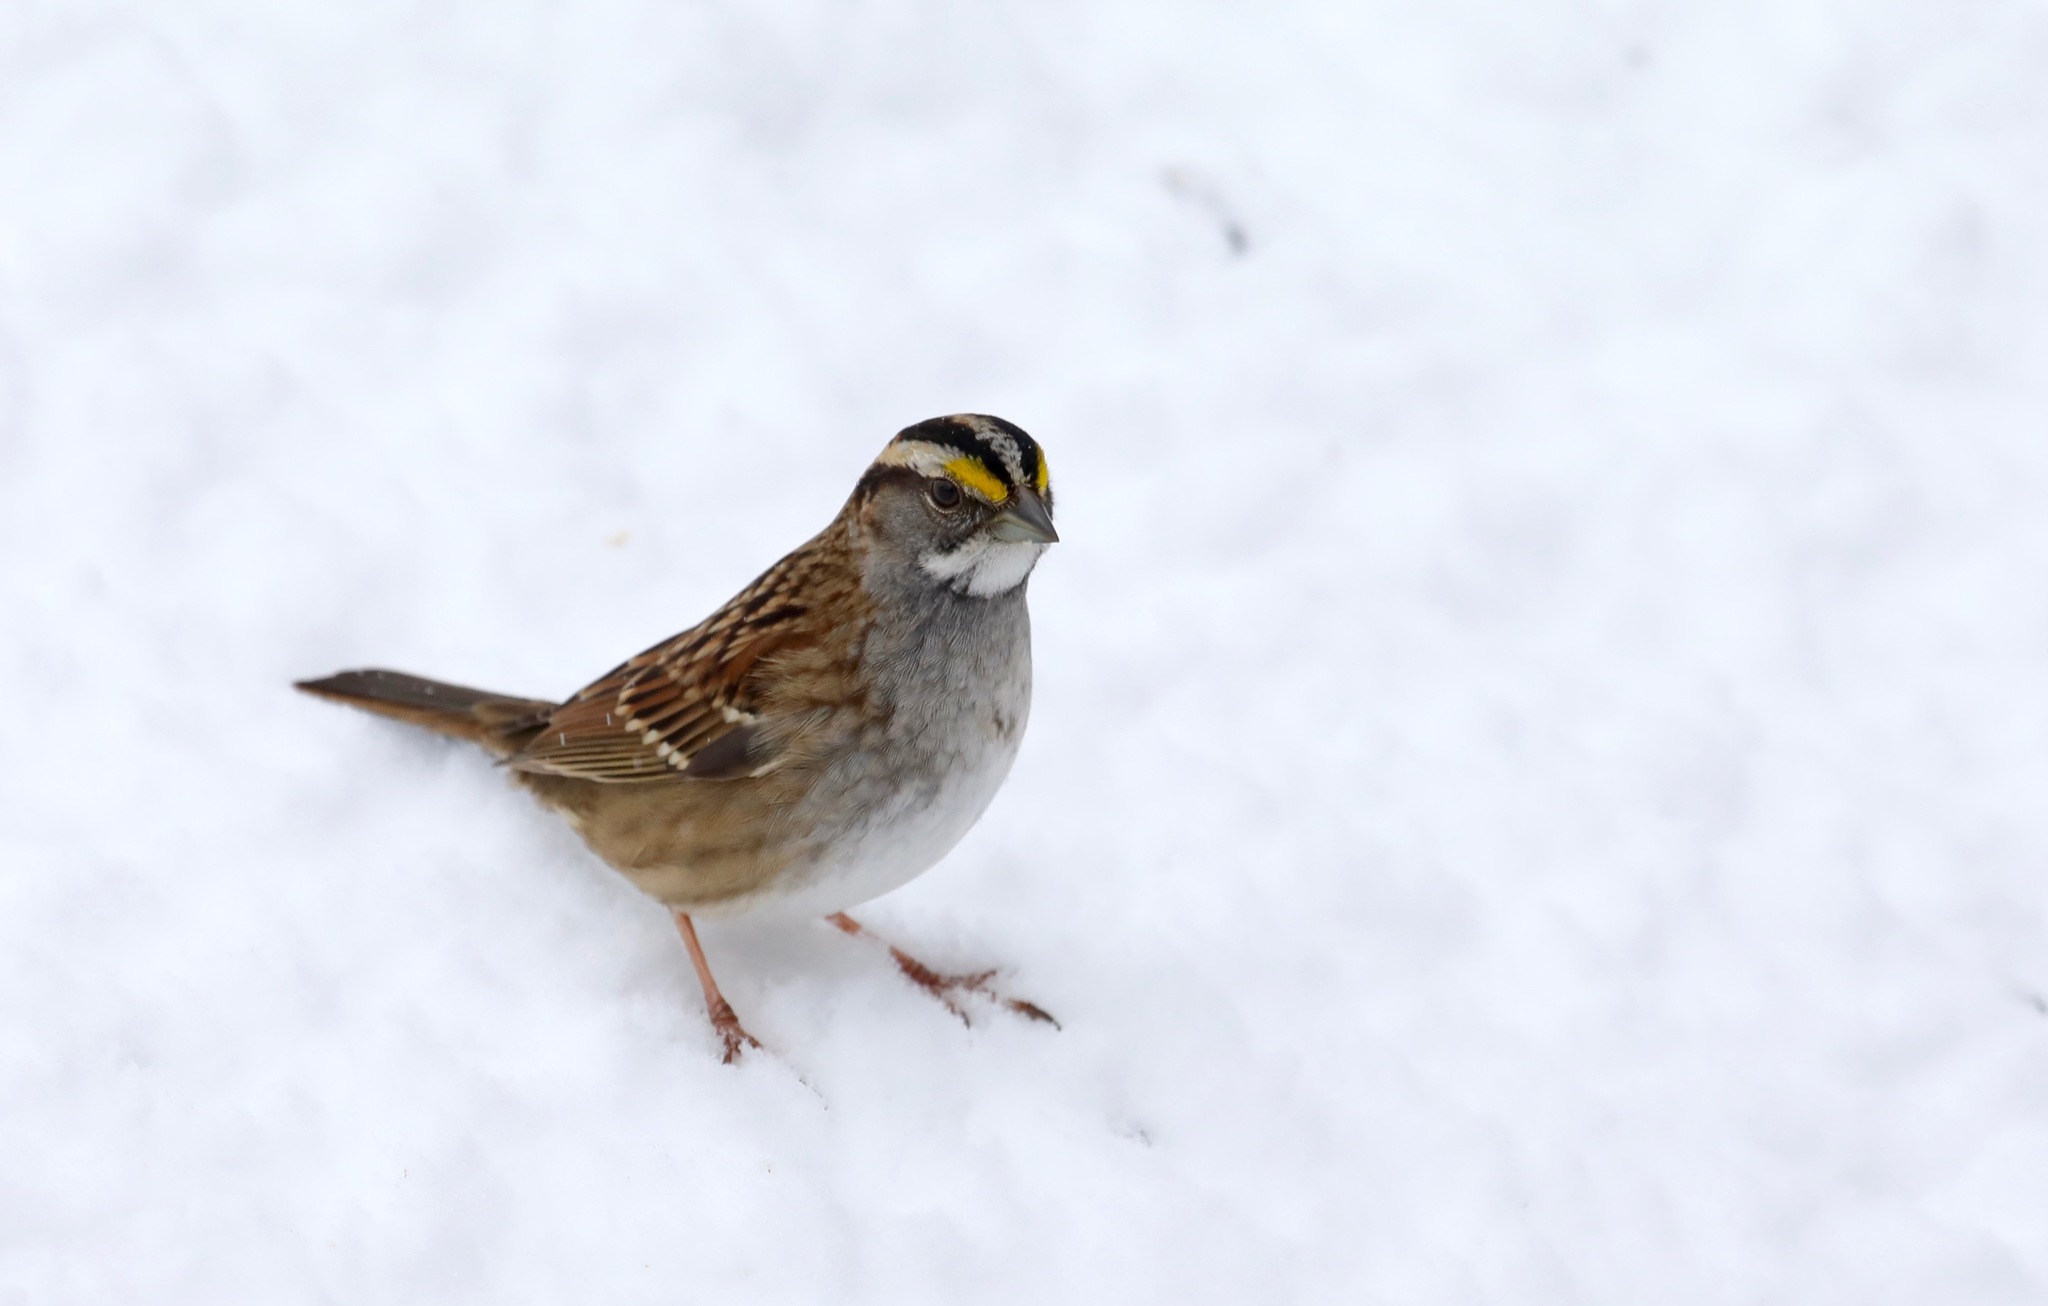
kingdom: Animalia
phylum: Chordata
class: Aves
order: Passeriformes
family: Passerellidae
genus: Zonotrichia
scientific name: Zonotrichia albicollis
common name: White-throated sparrow
